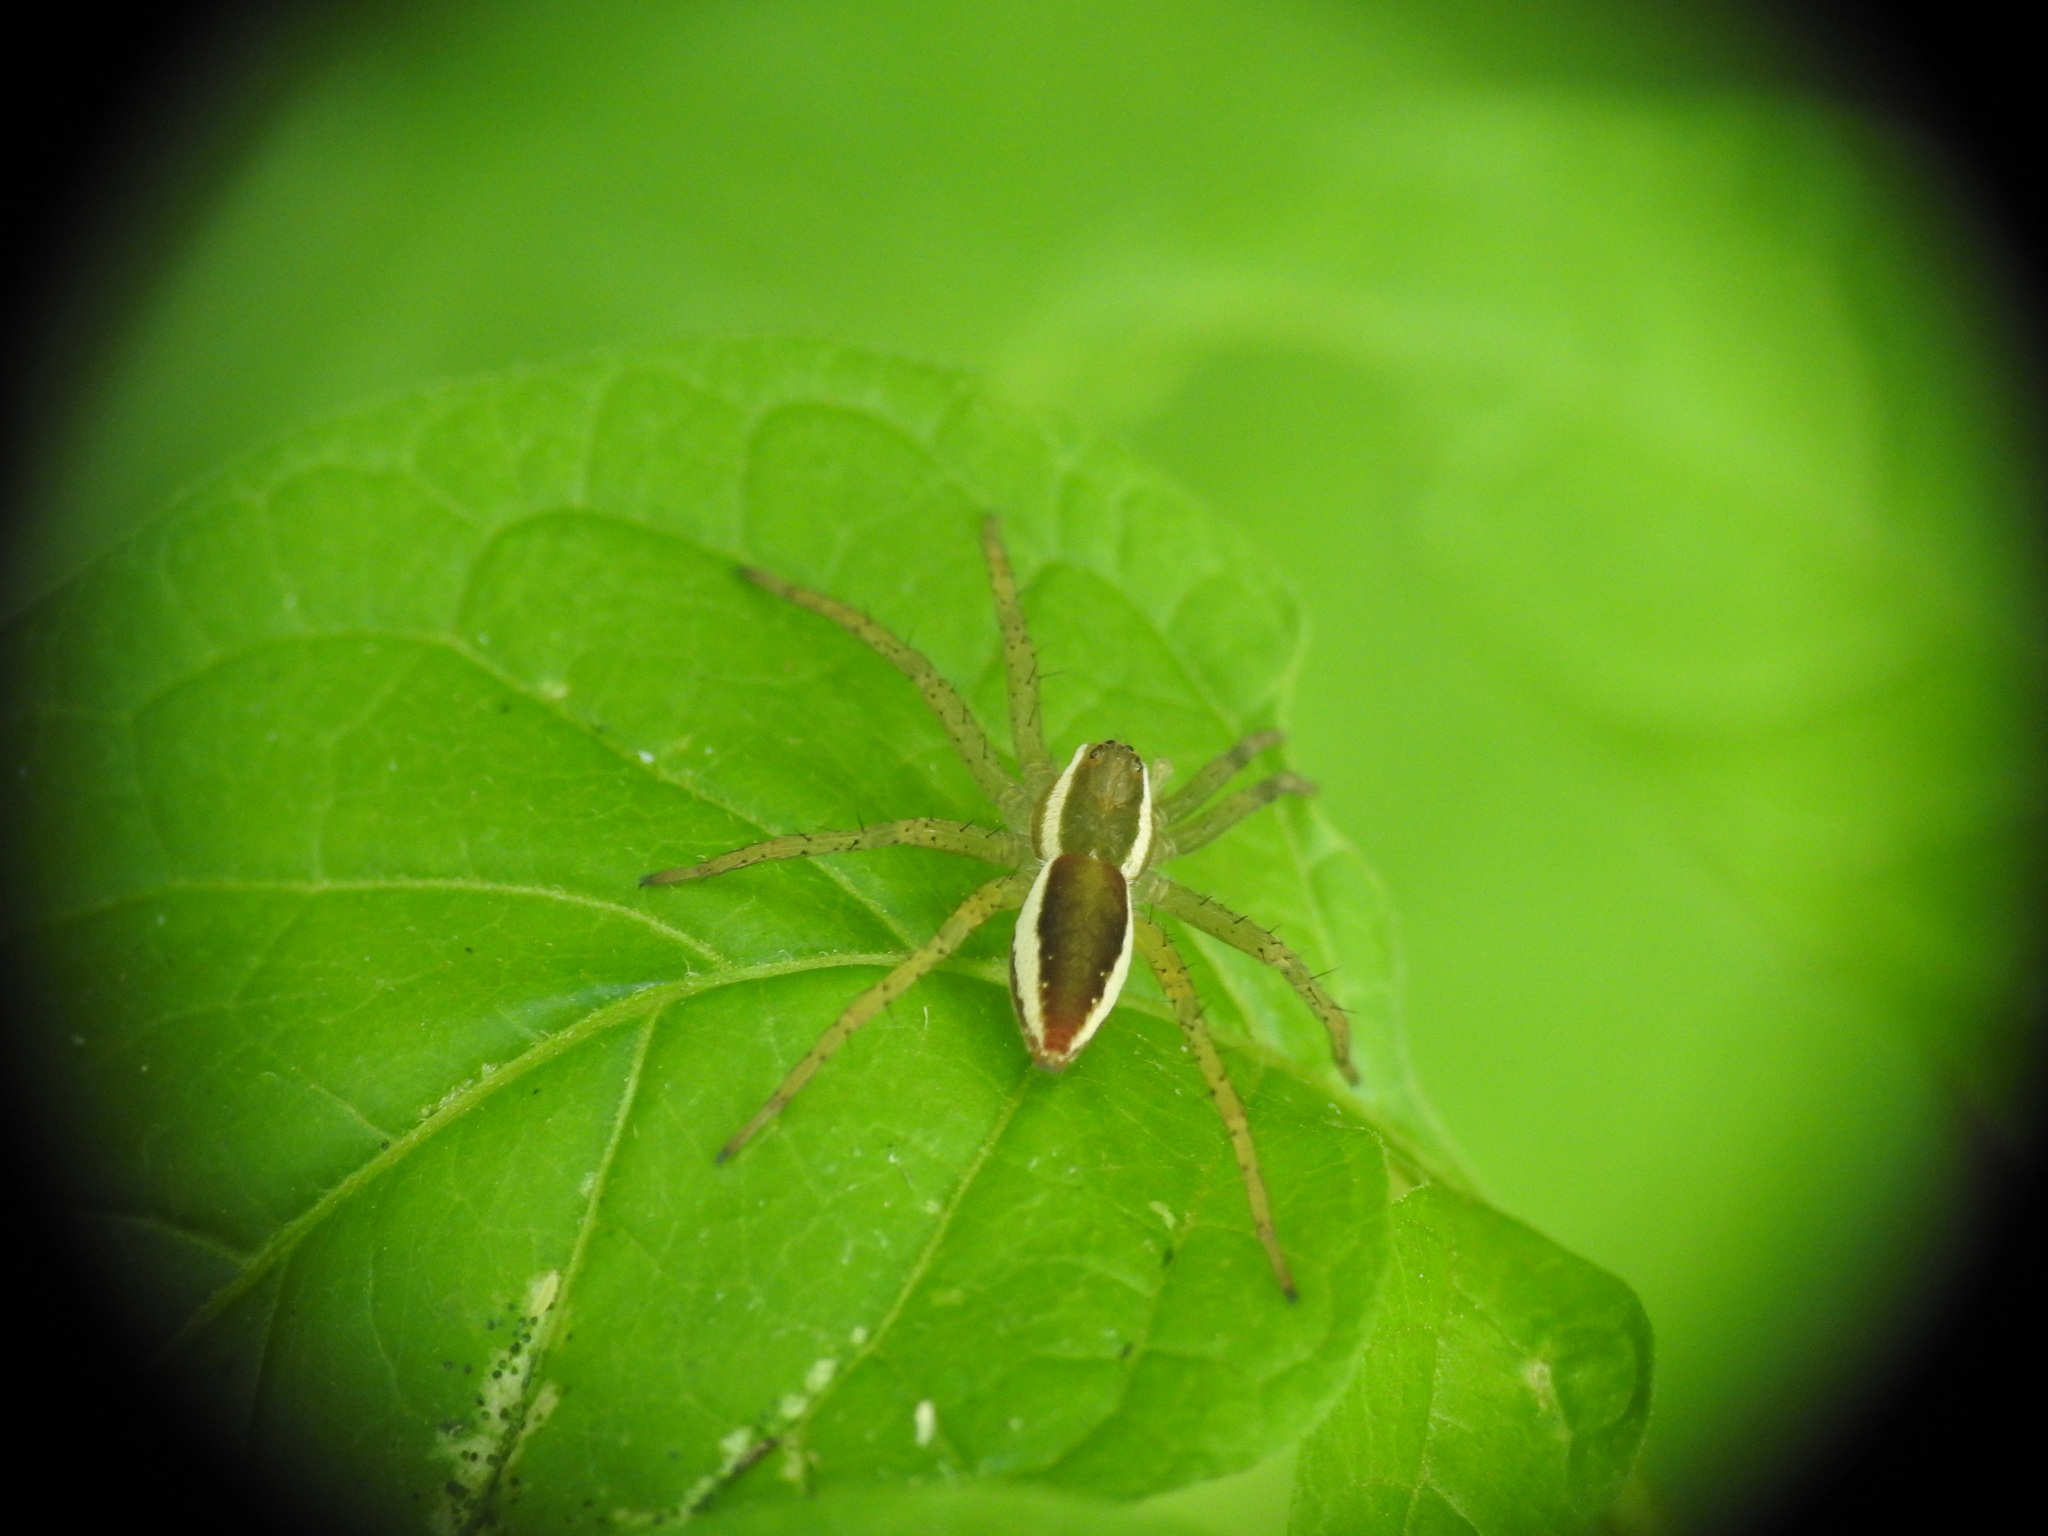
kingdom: Animalia
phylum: Arthropoda
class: Arachnida
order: Araneae
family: Pisauridae
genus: Dolomedes
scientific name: Dolomedes fimbriatus
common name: Raft spider
